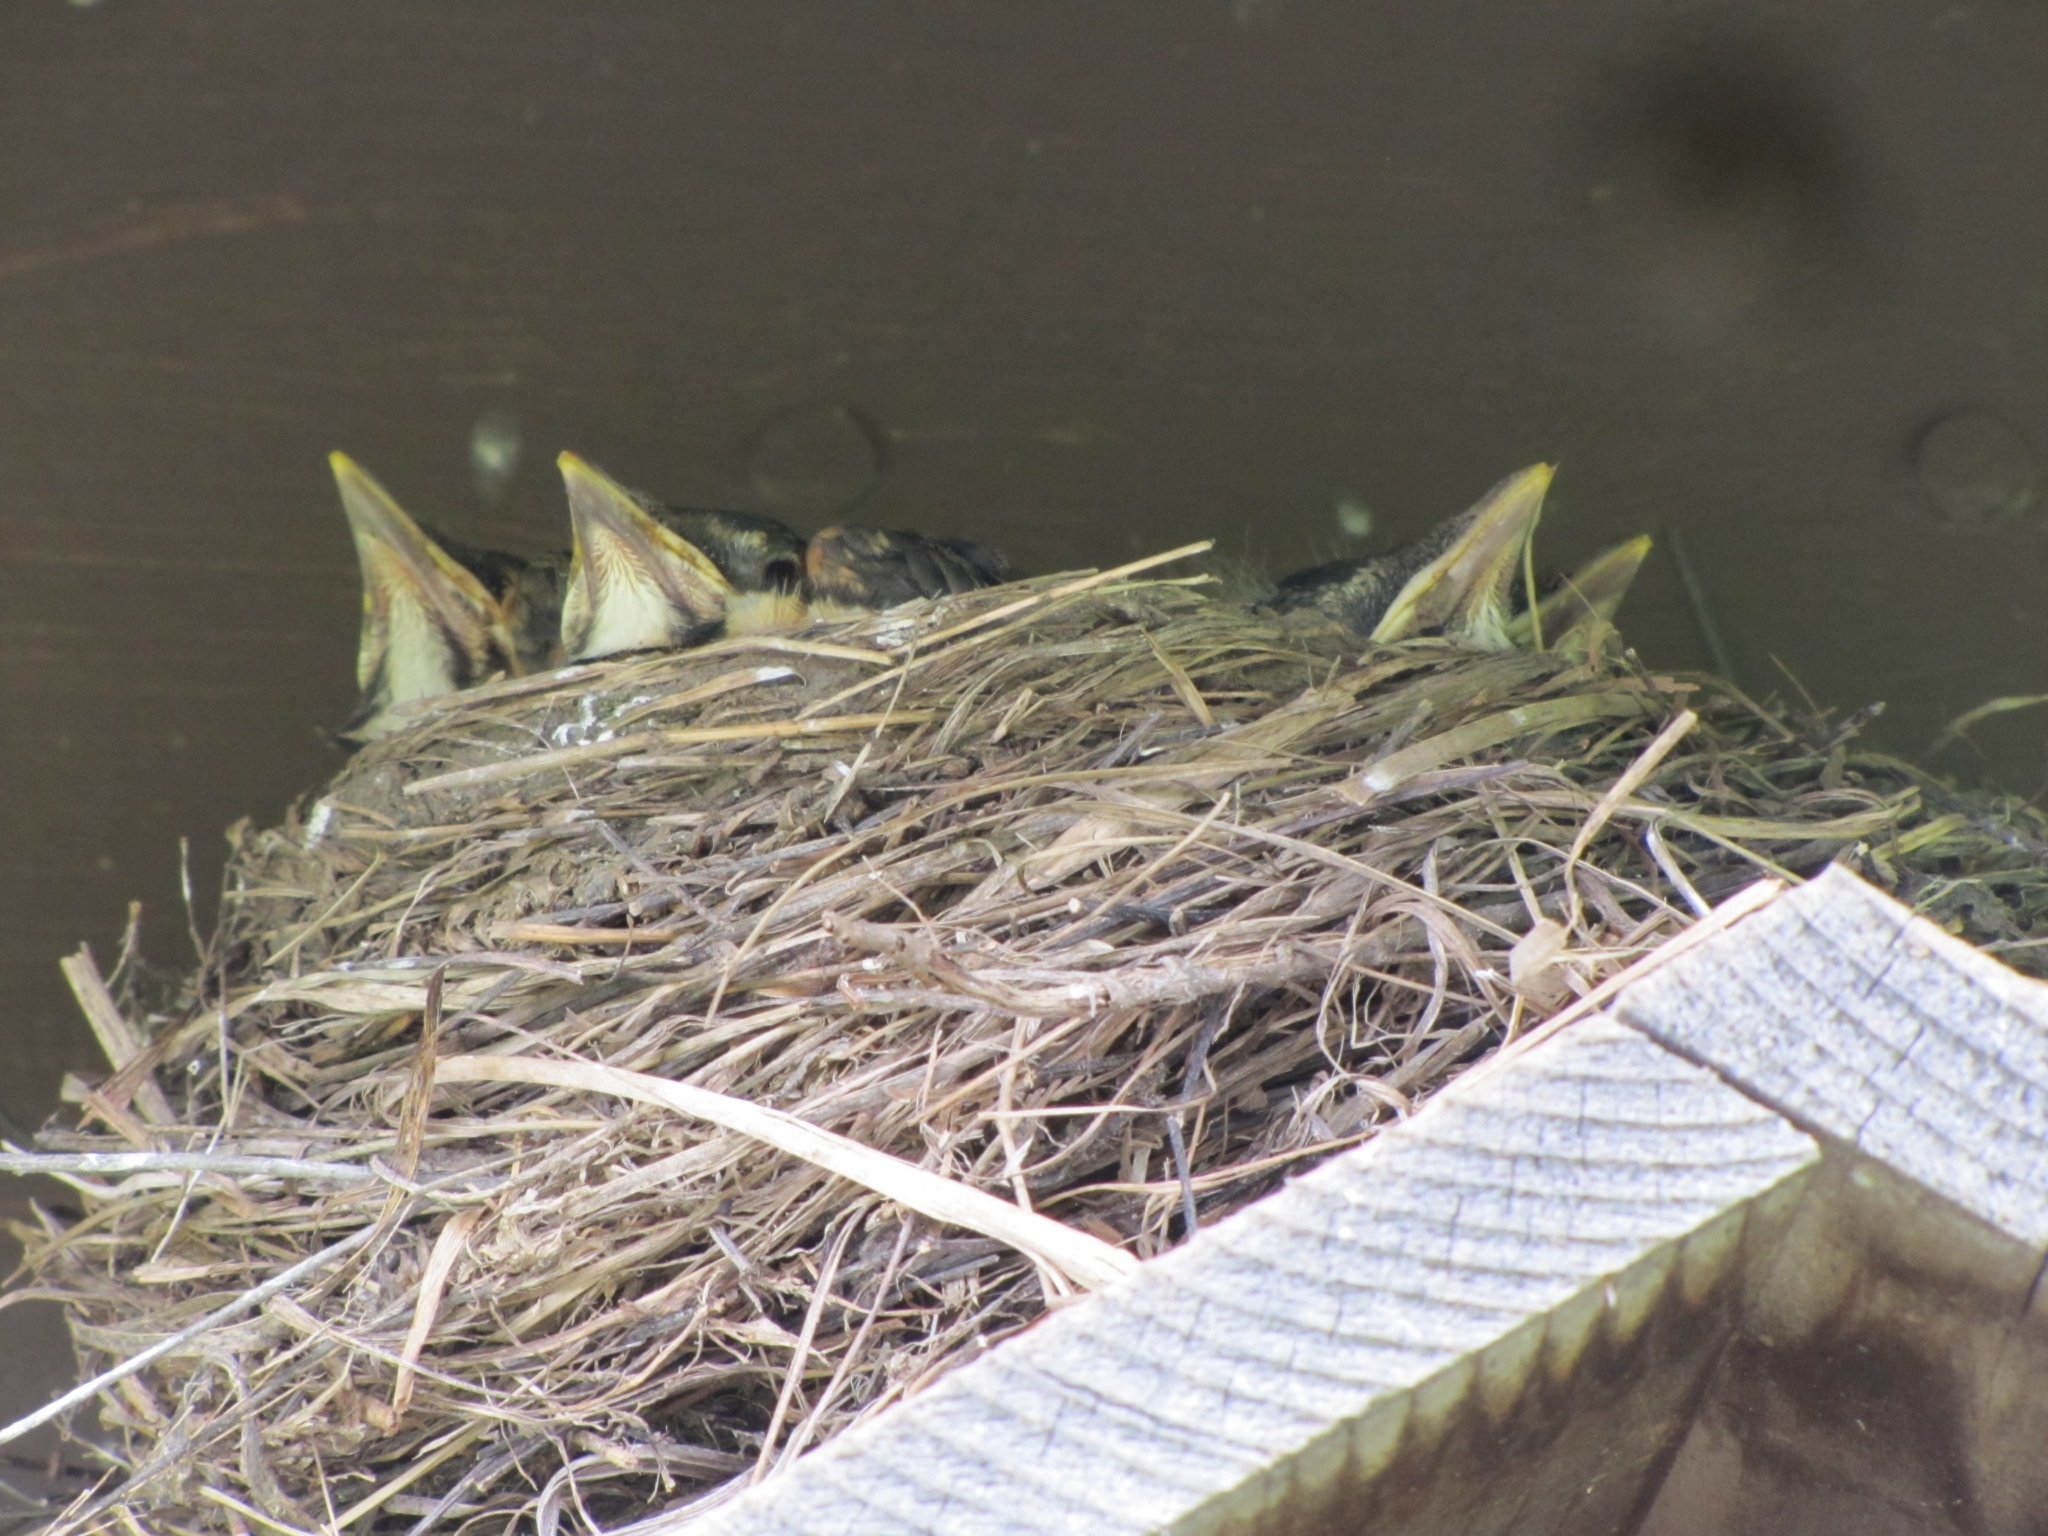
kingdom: Animalia
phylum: Chordata
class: Aves
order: Passeriformes
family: Turdidae
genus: Turdus
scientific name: Turdus migratorius
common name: American robin
